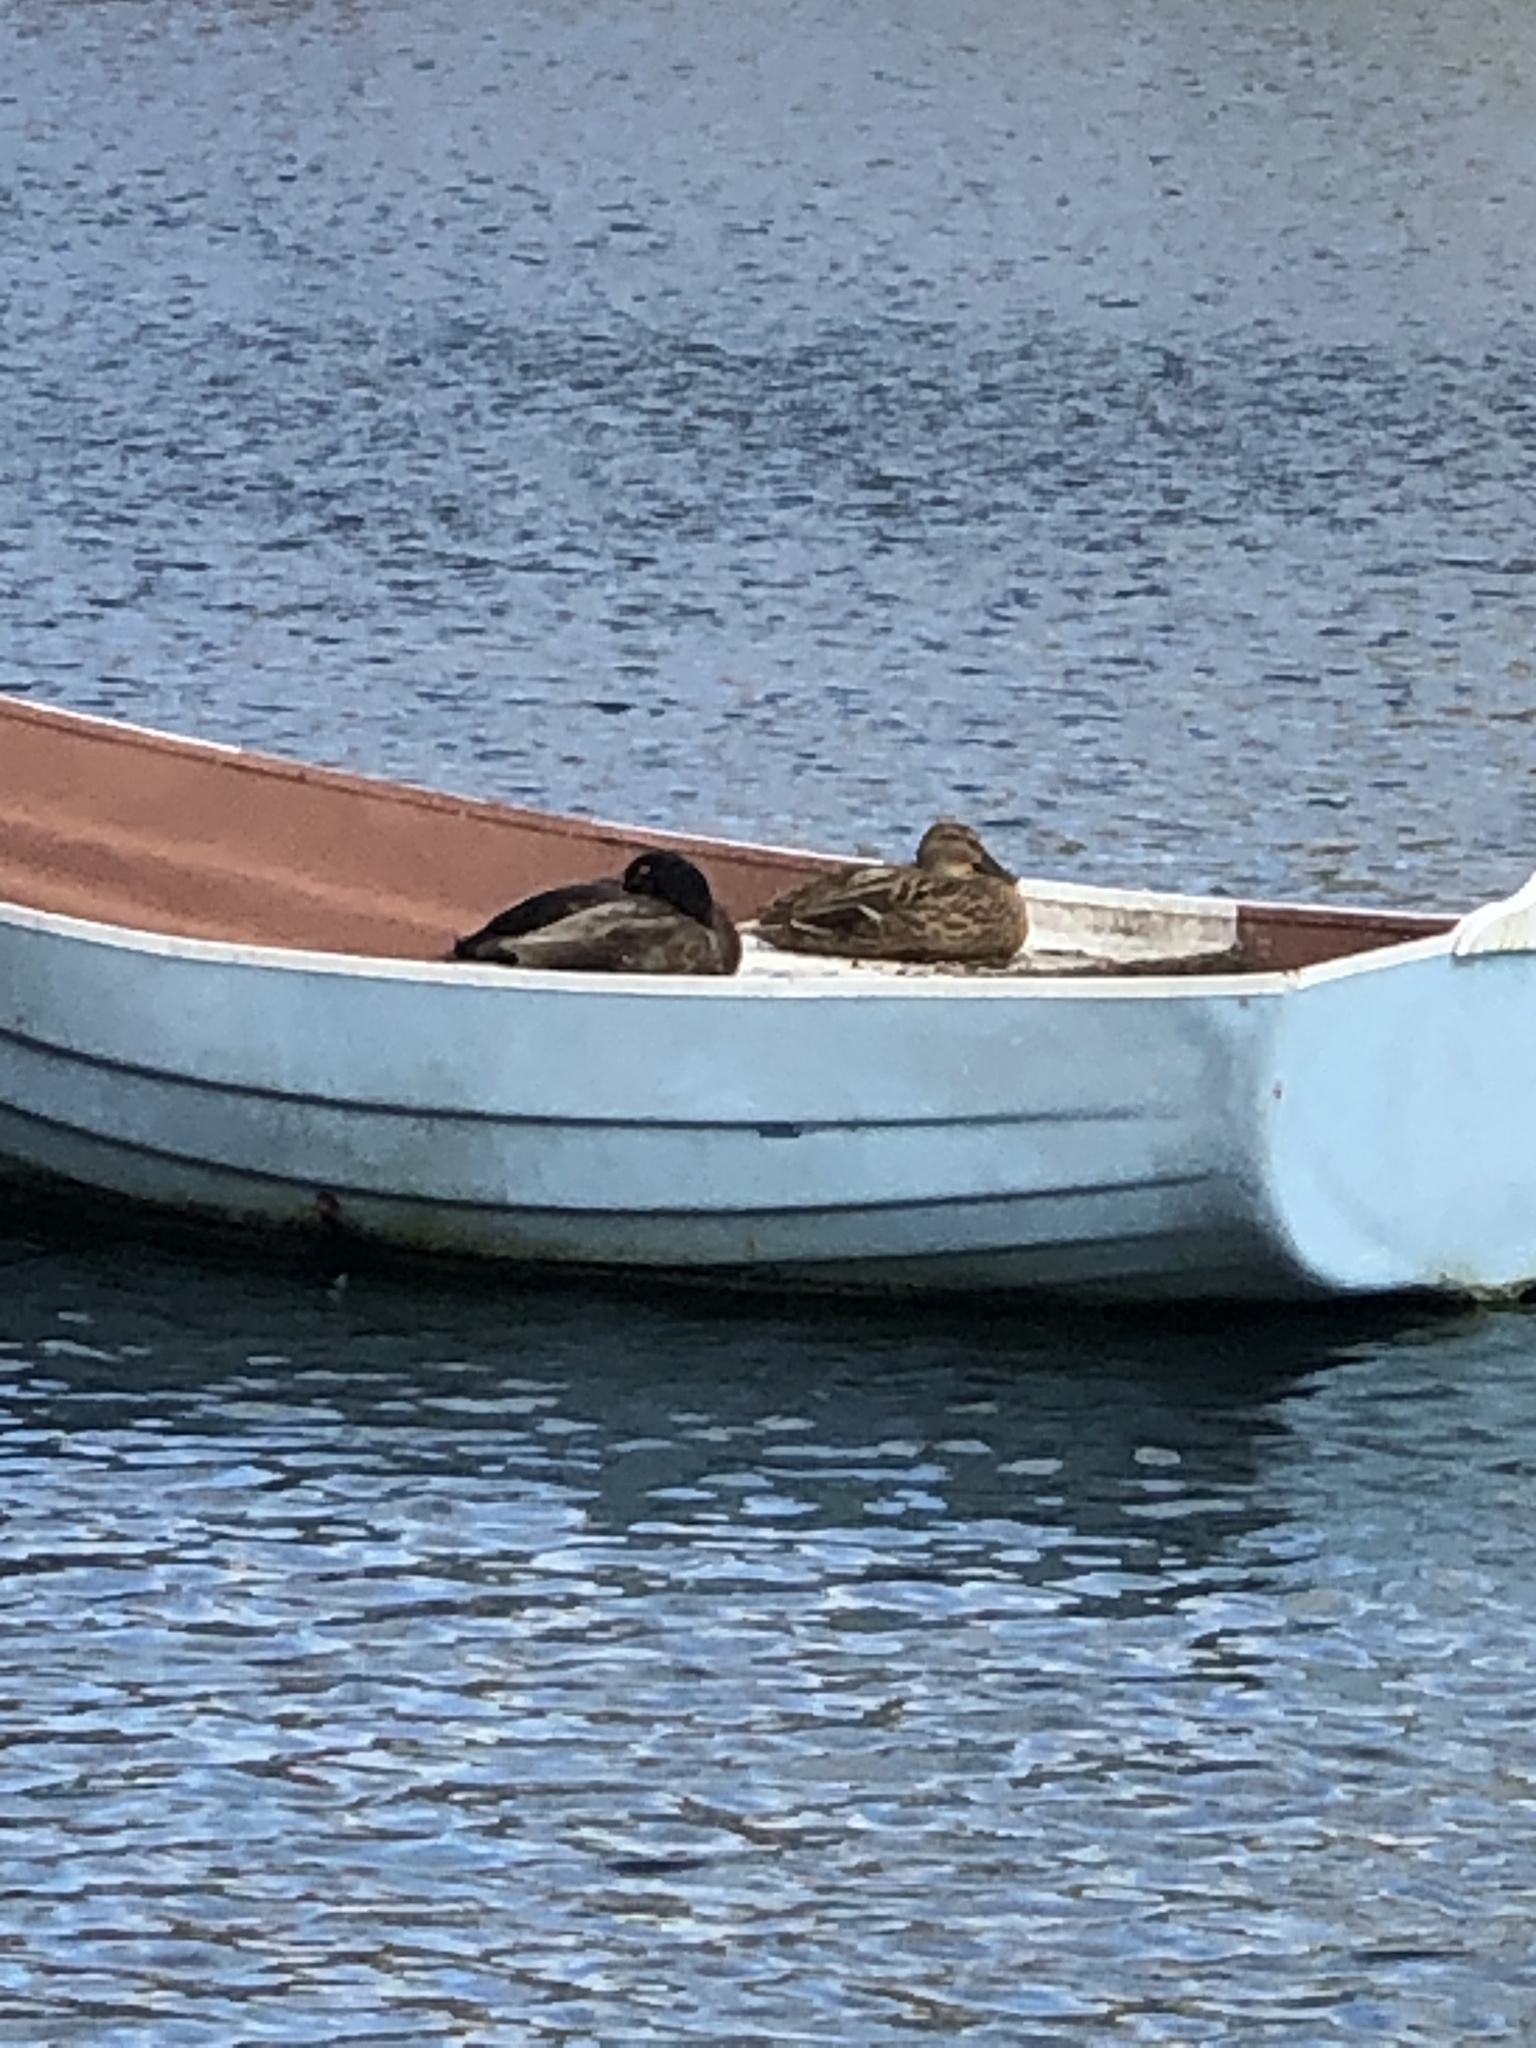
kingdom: Animalia
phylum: Chordata
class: Aves
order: Anseriformes
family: Anatidae
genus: Anas
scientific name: Anas platyrhynchos
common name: Mallard
